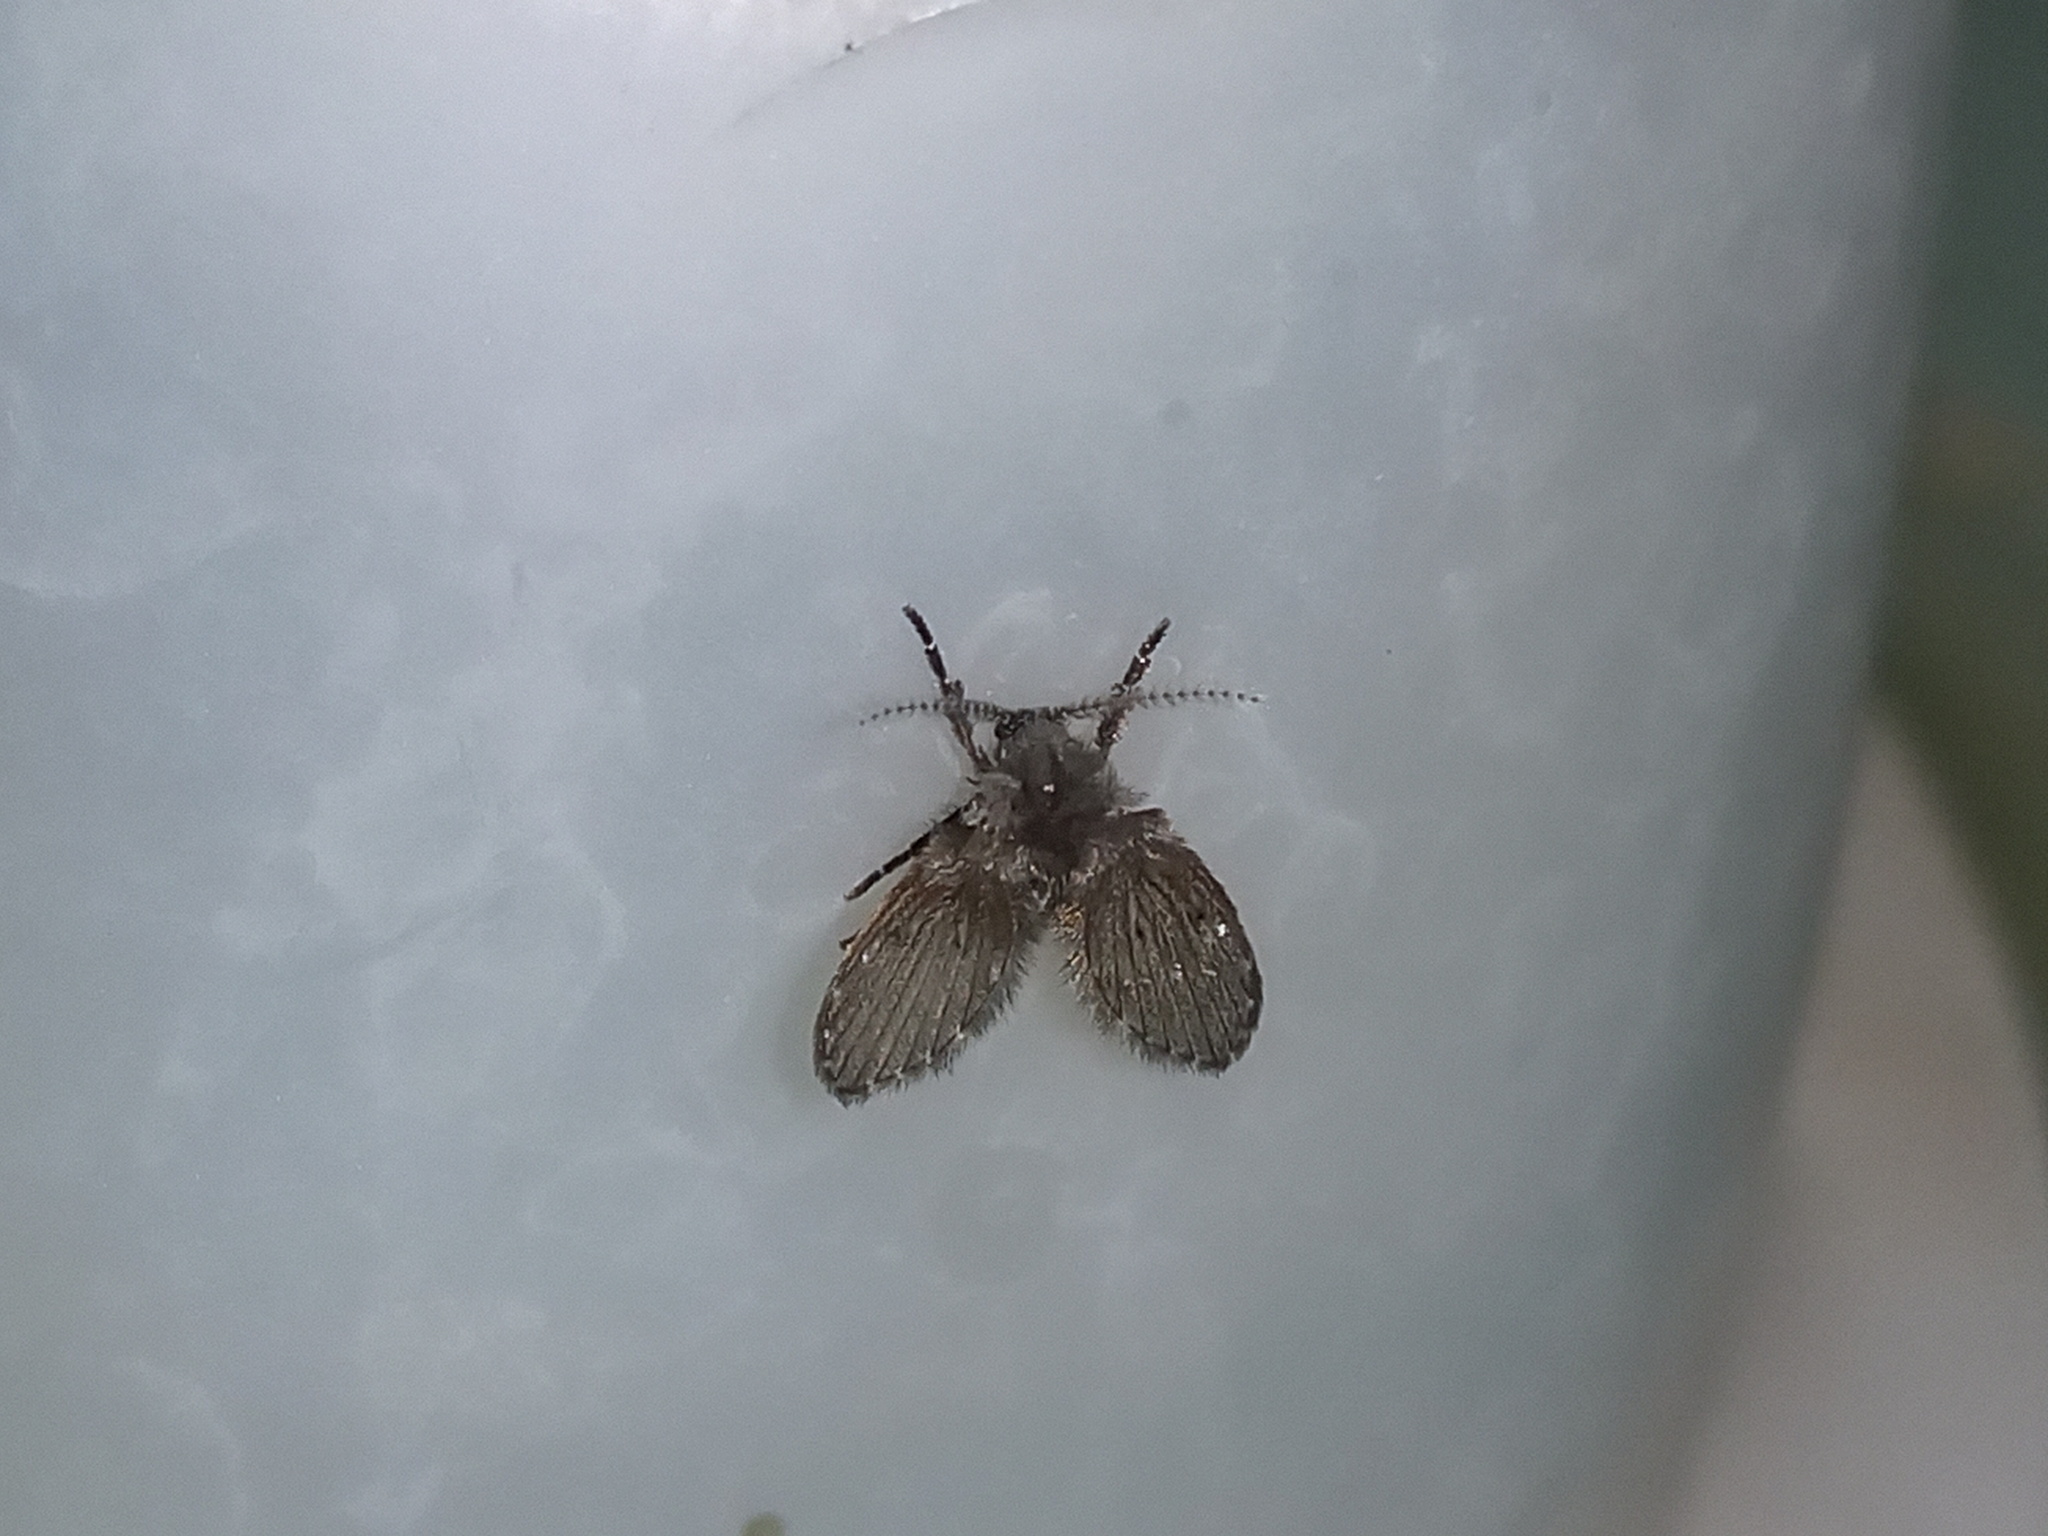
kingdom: Animalia
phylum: Arthropoda
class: Insecta
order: Diptera
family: Psychodidae
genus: Clogmia
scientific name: Clogmia albipunctatus
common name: White-spotted moth fly
